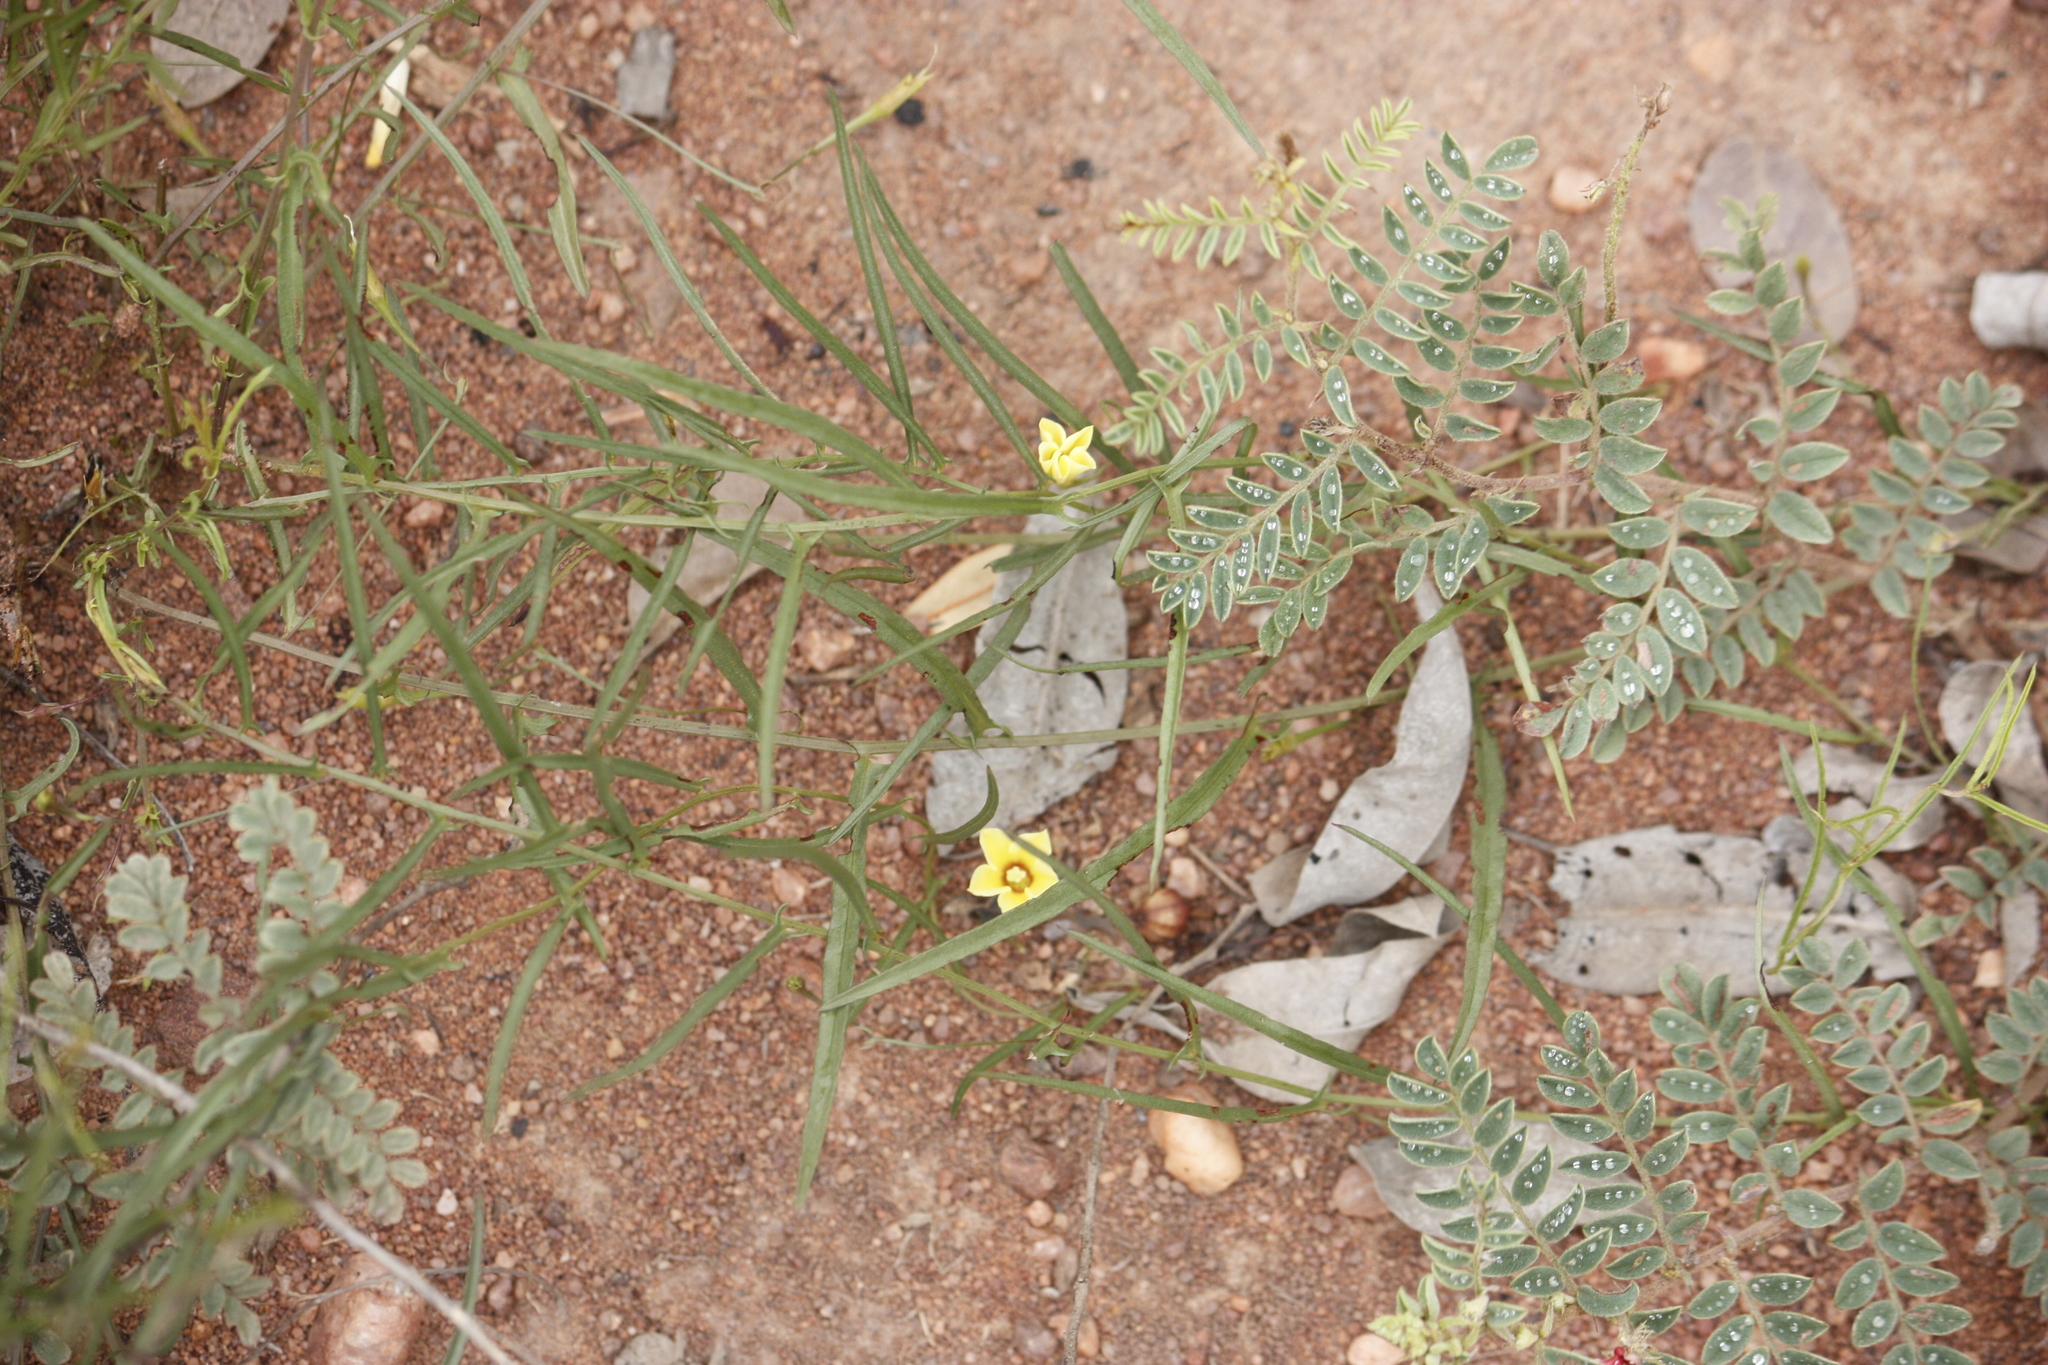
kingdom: Plantae
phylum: Tracheophyta
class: Magnoliopsida
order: Solanales
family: Convolvulaceae
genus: Xenostegia
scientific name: Xenostegia tridentata
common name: African morningvine
